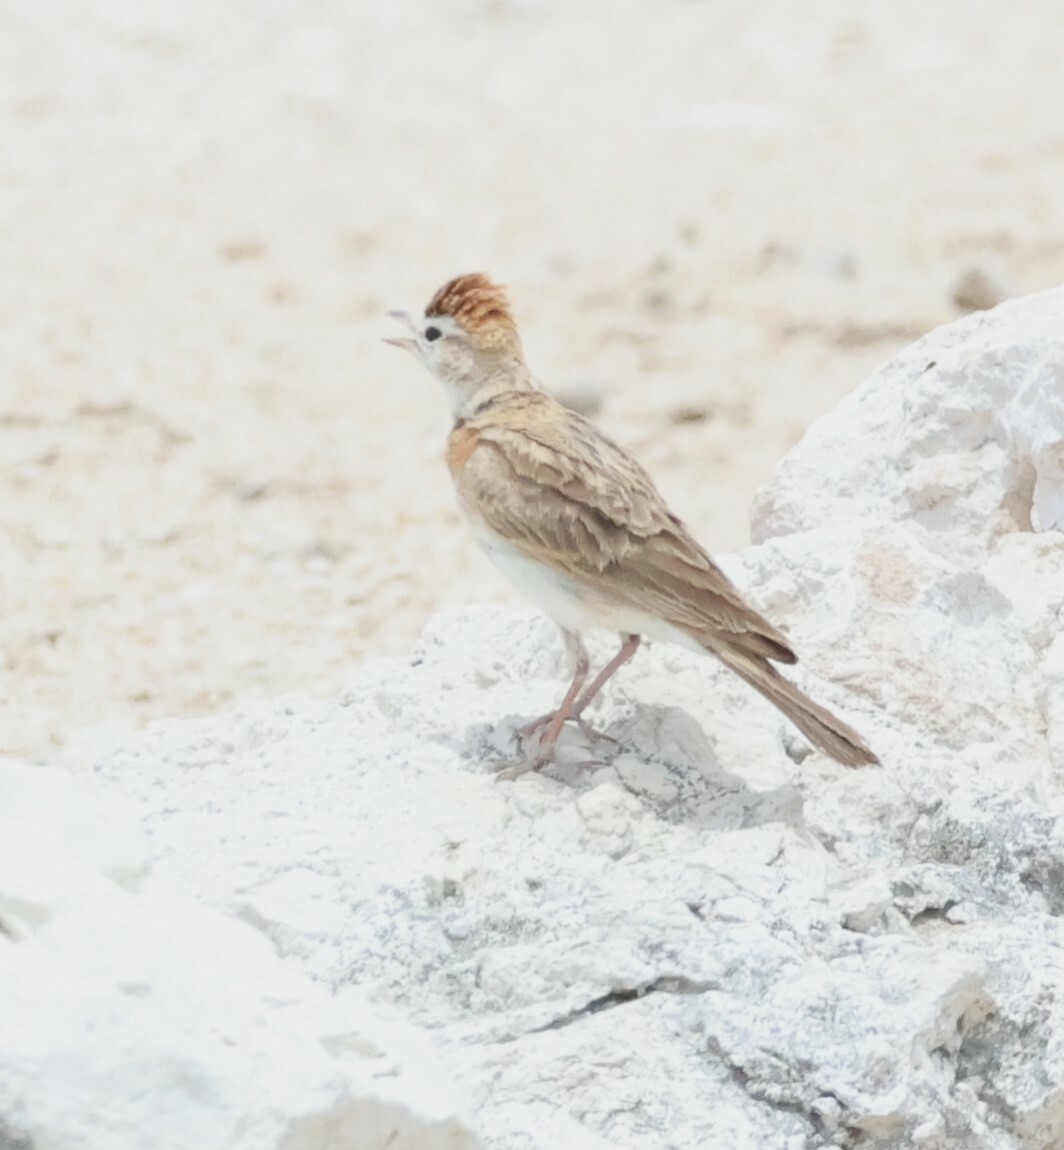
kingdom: Animalia
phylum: Chordata
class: Aves
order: Passeriformes
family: Alaudidae
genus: Calandrella
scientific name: Calandrella cinerea
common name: Red-capped lark
